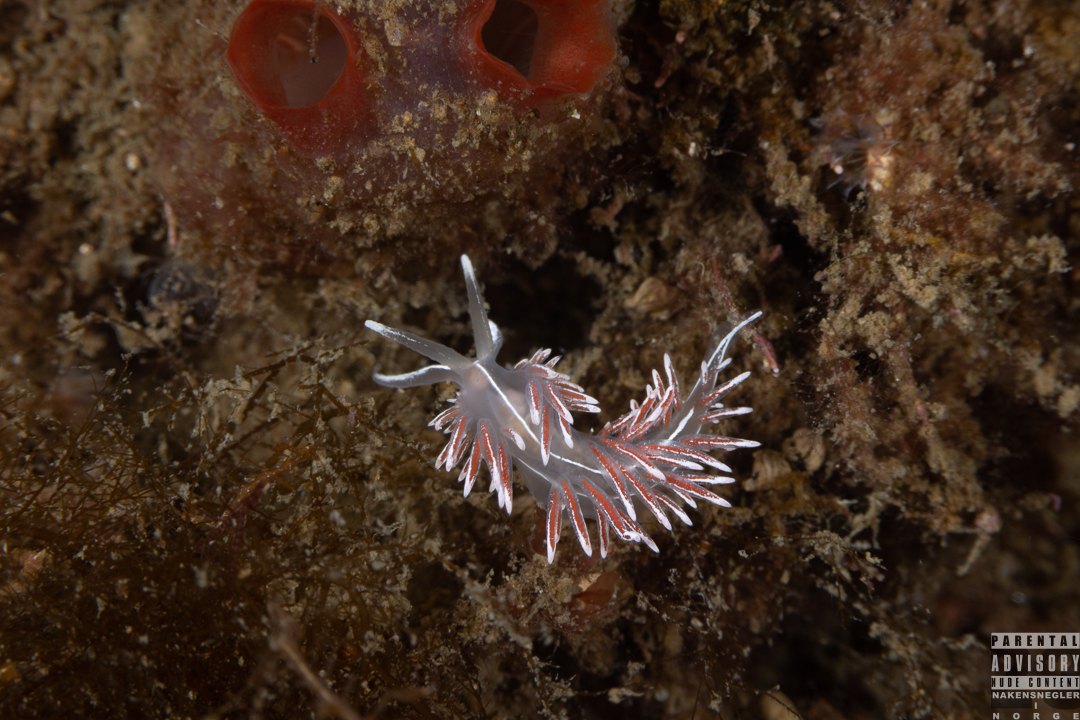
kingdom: Animalia
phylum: Mollusca
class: Gastropoda
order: Nudibranchia
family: Coryphellidae
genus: Coryphella
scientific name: Coryphella lineata
